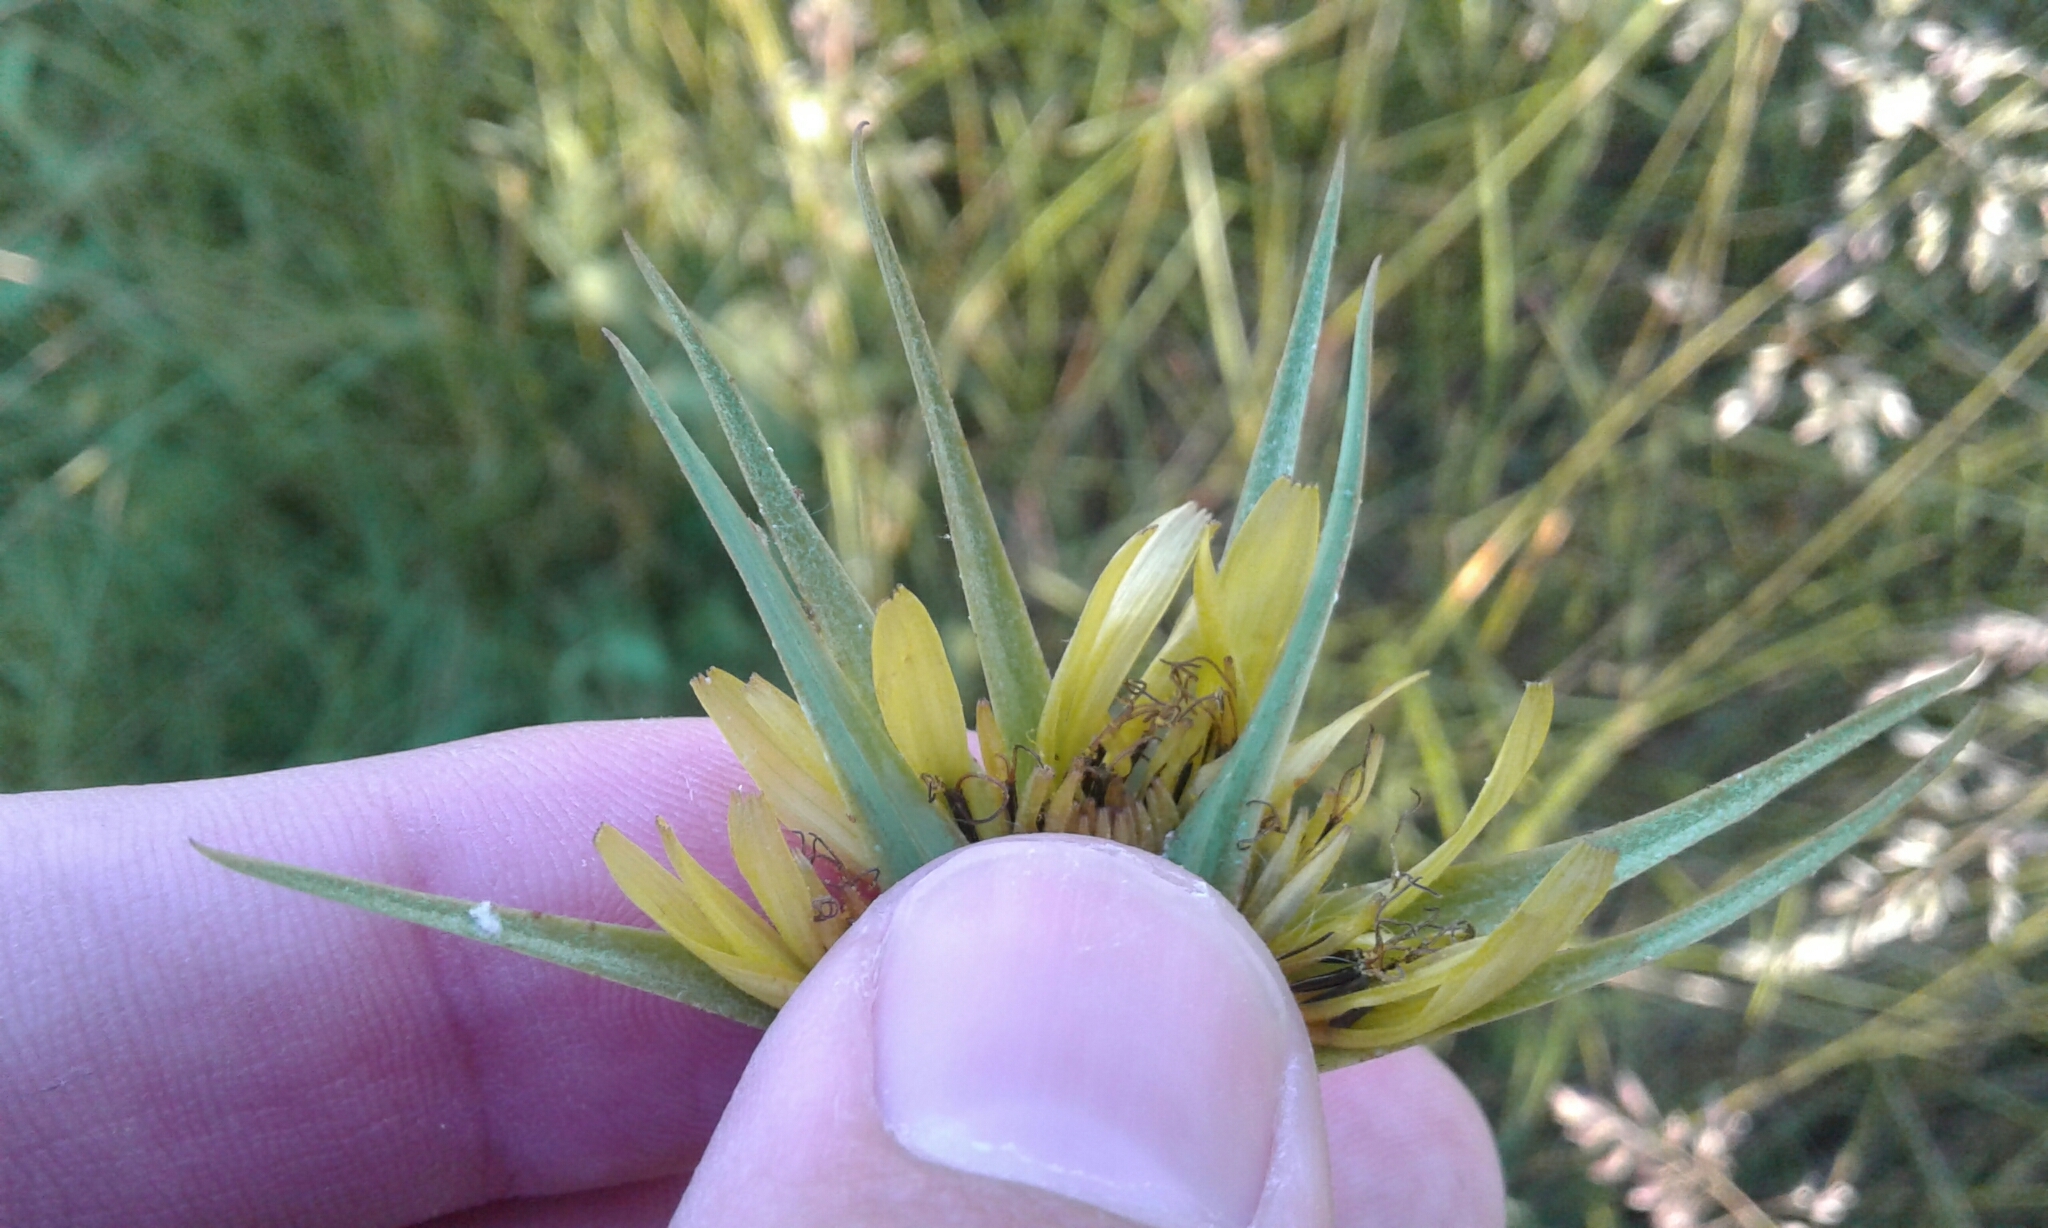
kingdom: Plantae
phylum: Tracheophyta
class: Magnoliopsida
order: Asterales
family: Asteraceae
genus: Tragopogon
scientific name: Tragopogon dubius
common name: Yellow salsify
